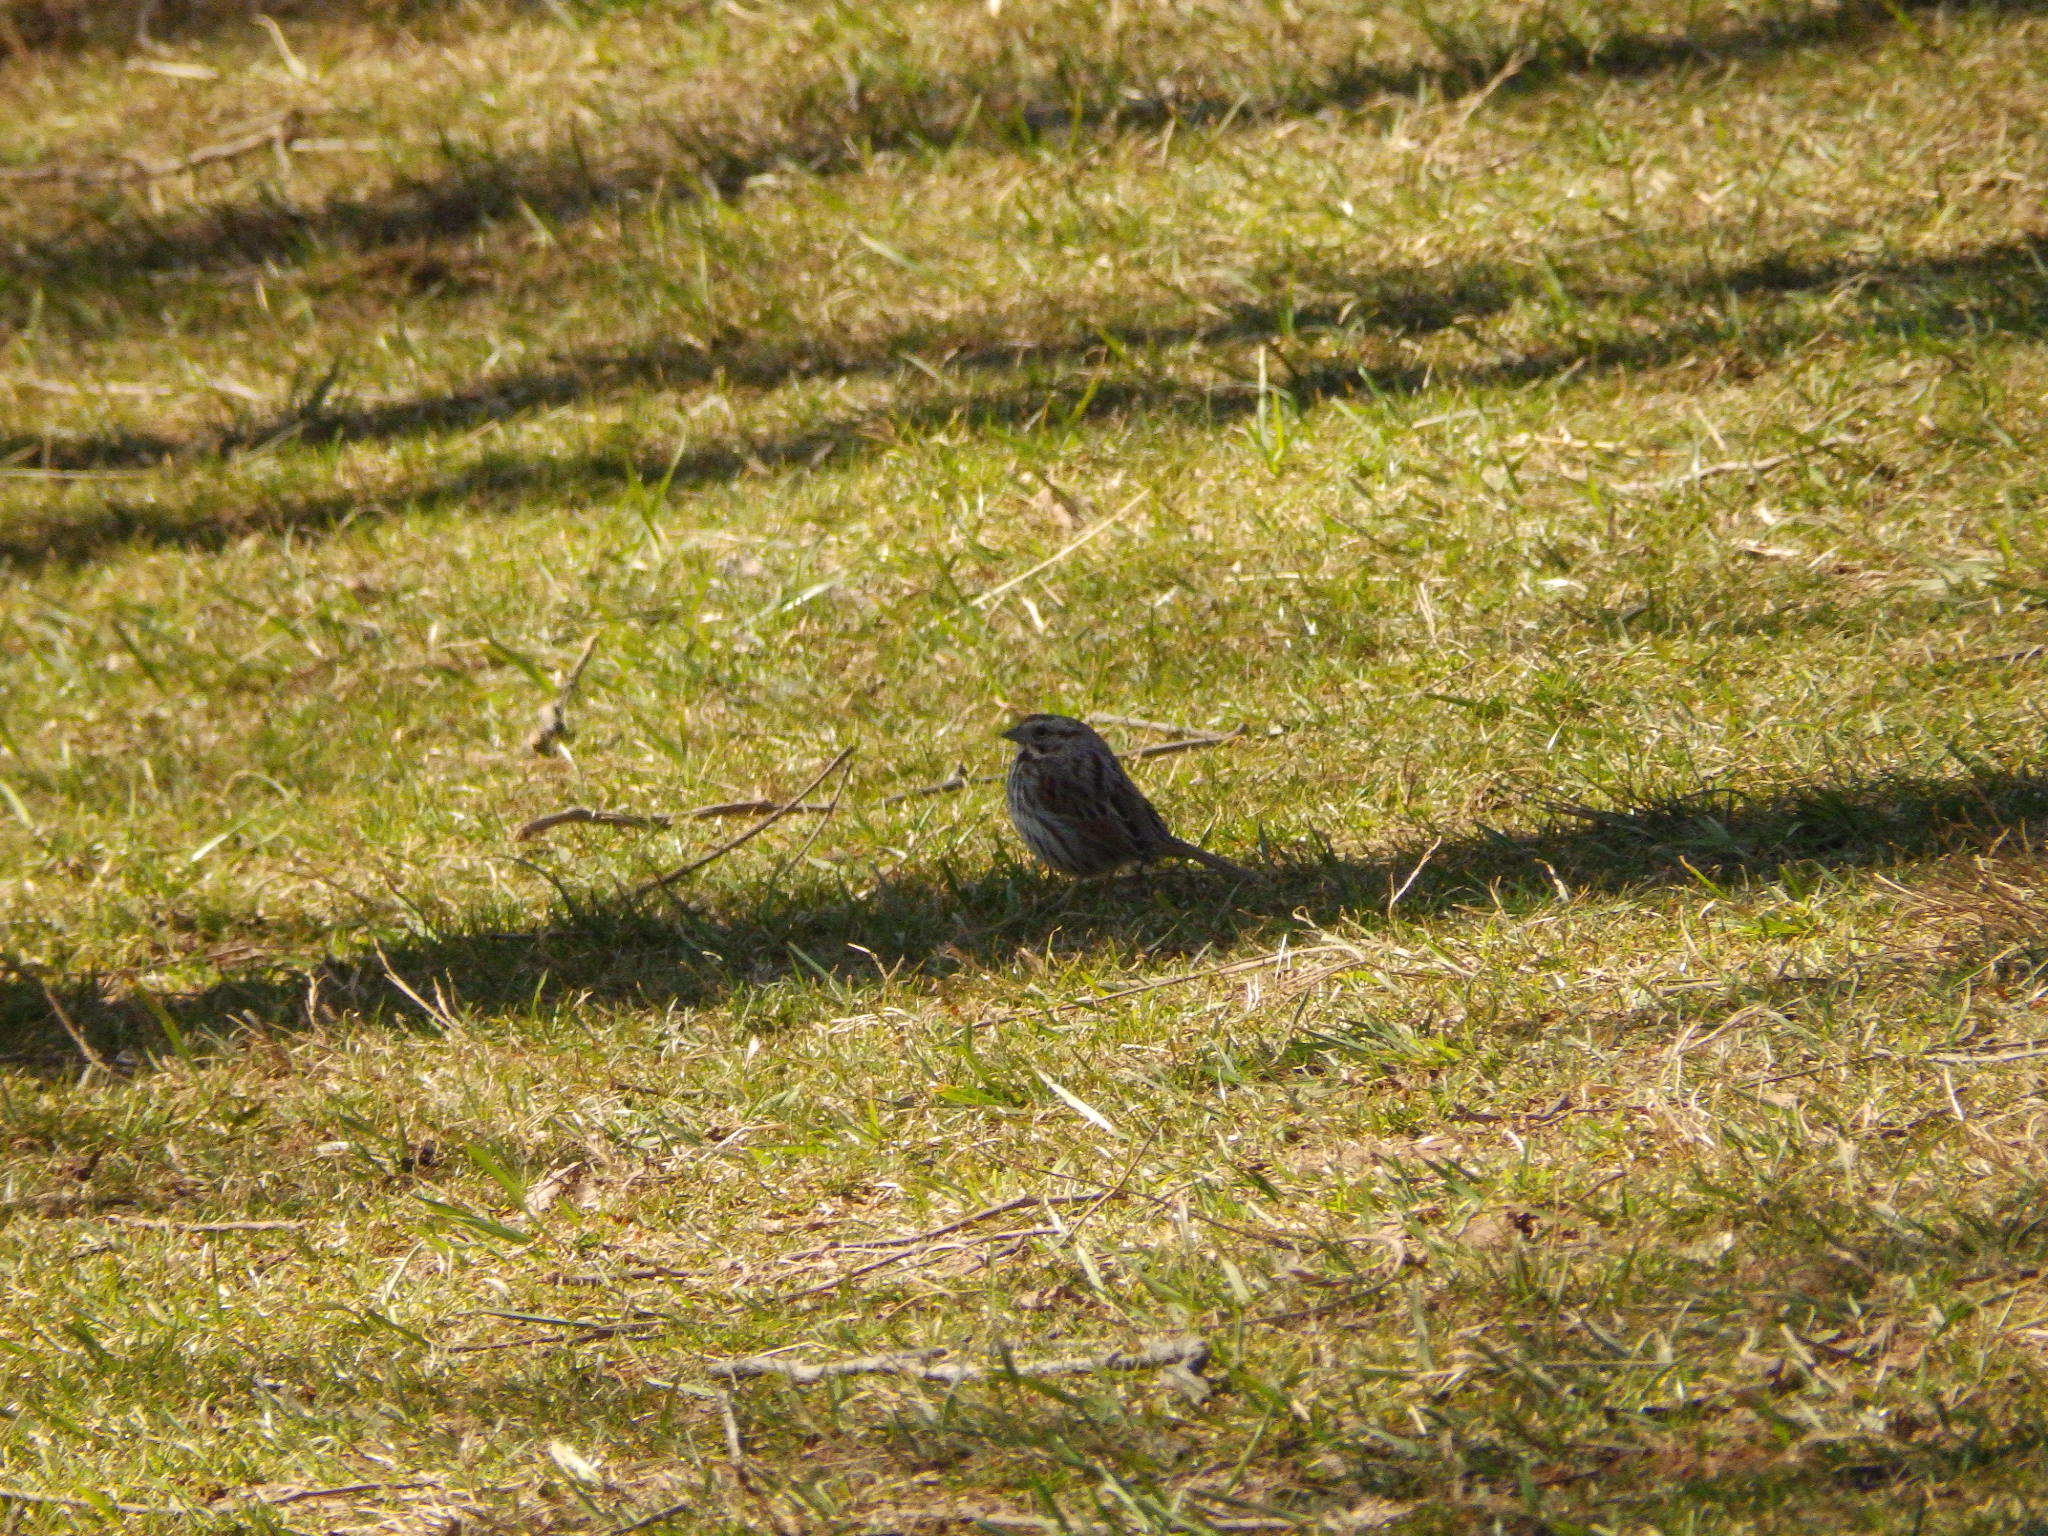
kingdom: Animalia
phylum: Chordata
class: Aves
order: Passeriformes
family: Passerellidae
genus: Melospiza
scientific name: Melospiza melodia
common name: Song sparrow
